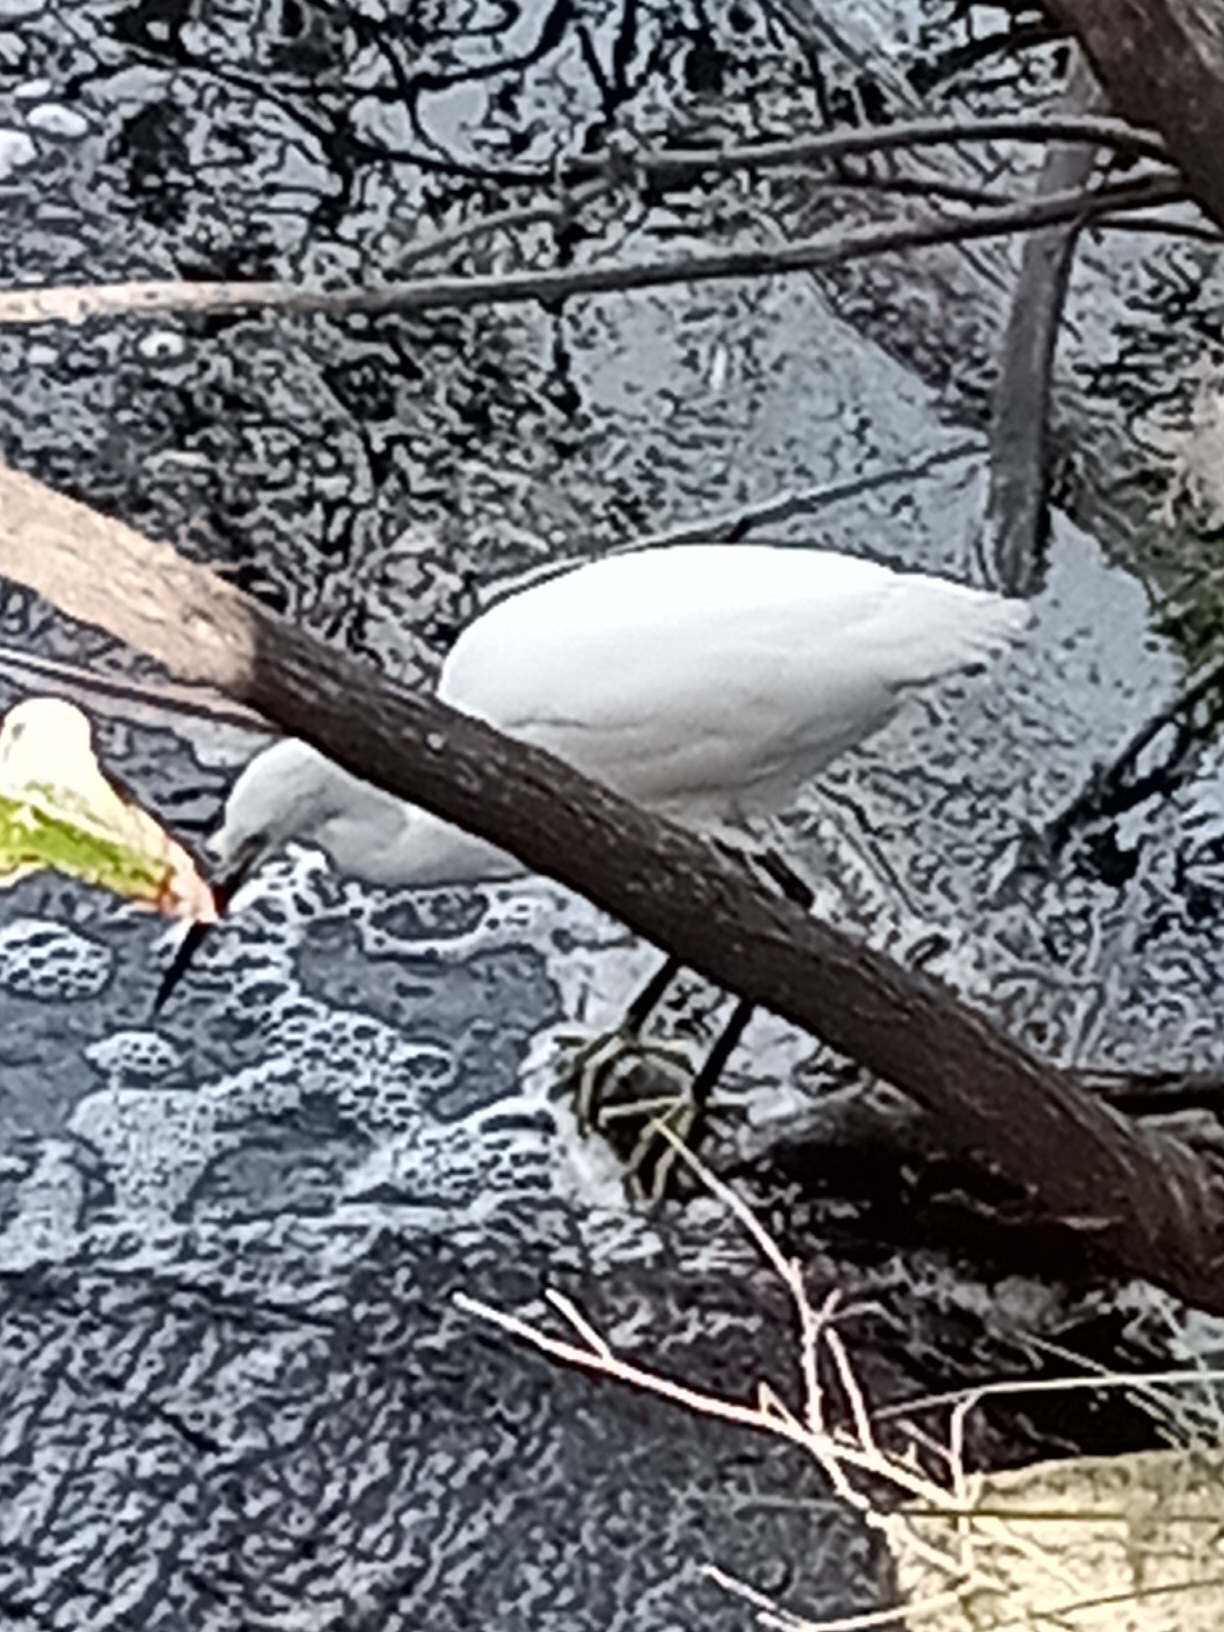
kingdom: Animalia
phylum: Chordata
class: Aves
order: Pelecaniformes
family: Ardeidae
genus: Egretta
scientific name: Egretta thula
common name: Snowy egret
